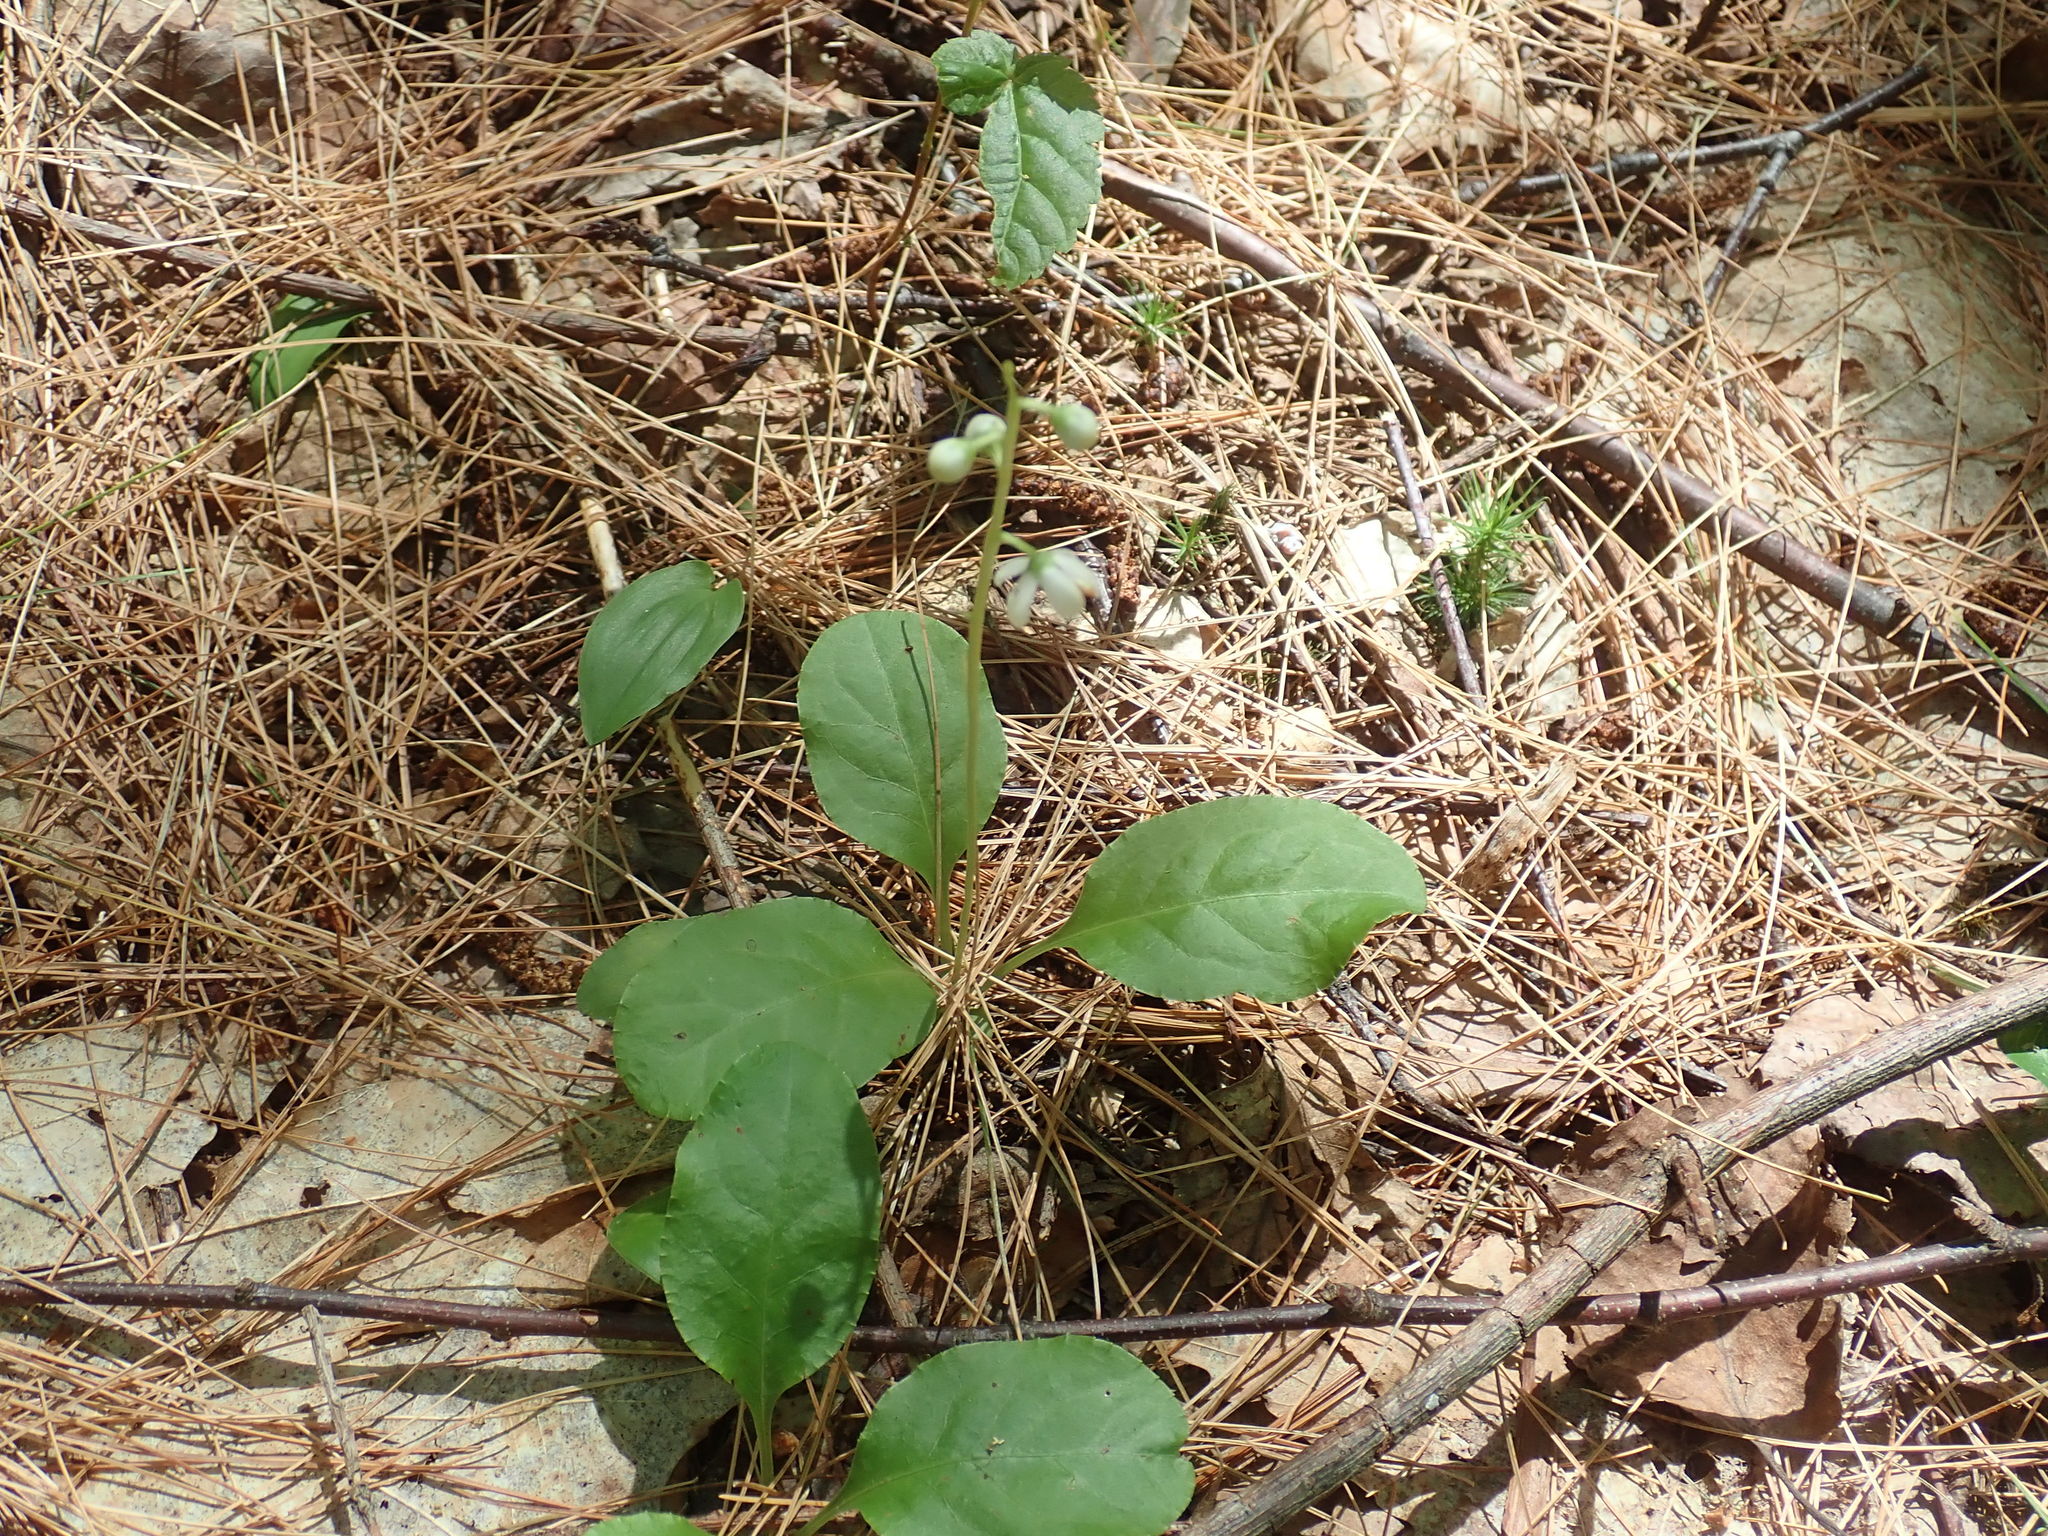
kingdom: Plantae
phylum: Tracheophyta
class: Magnoliopsida
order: Ericales
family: Ericaceae
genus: Pyrola
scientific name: Pyrola elliptica
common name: Shinleaf
